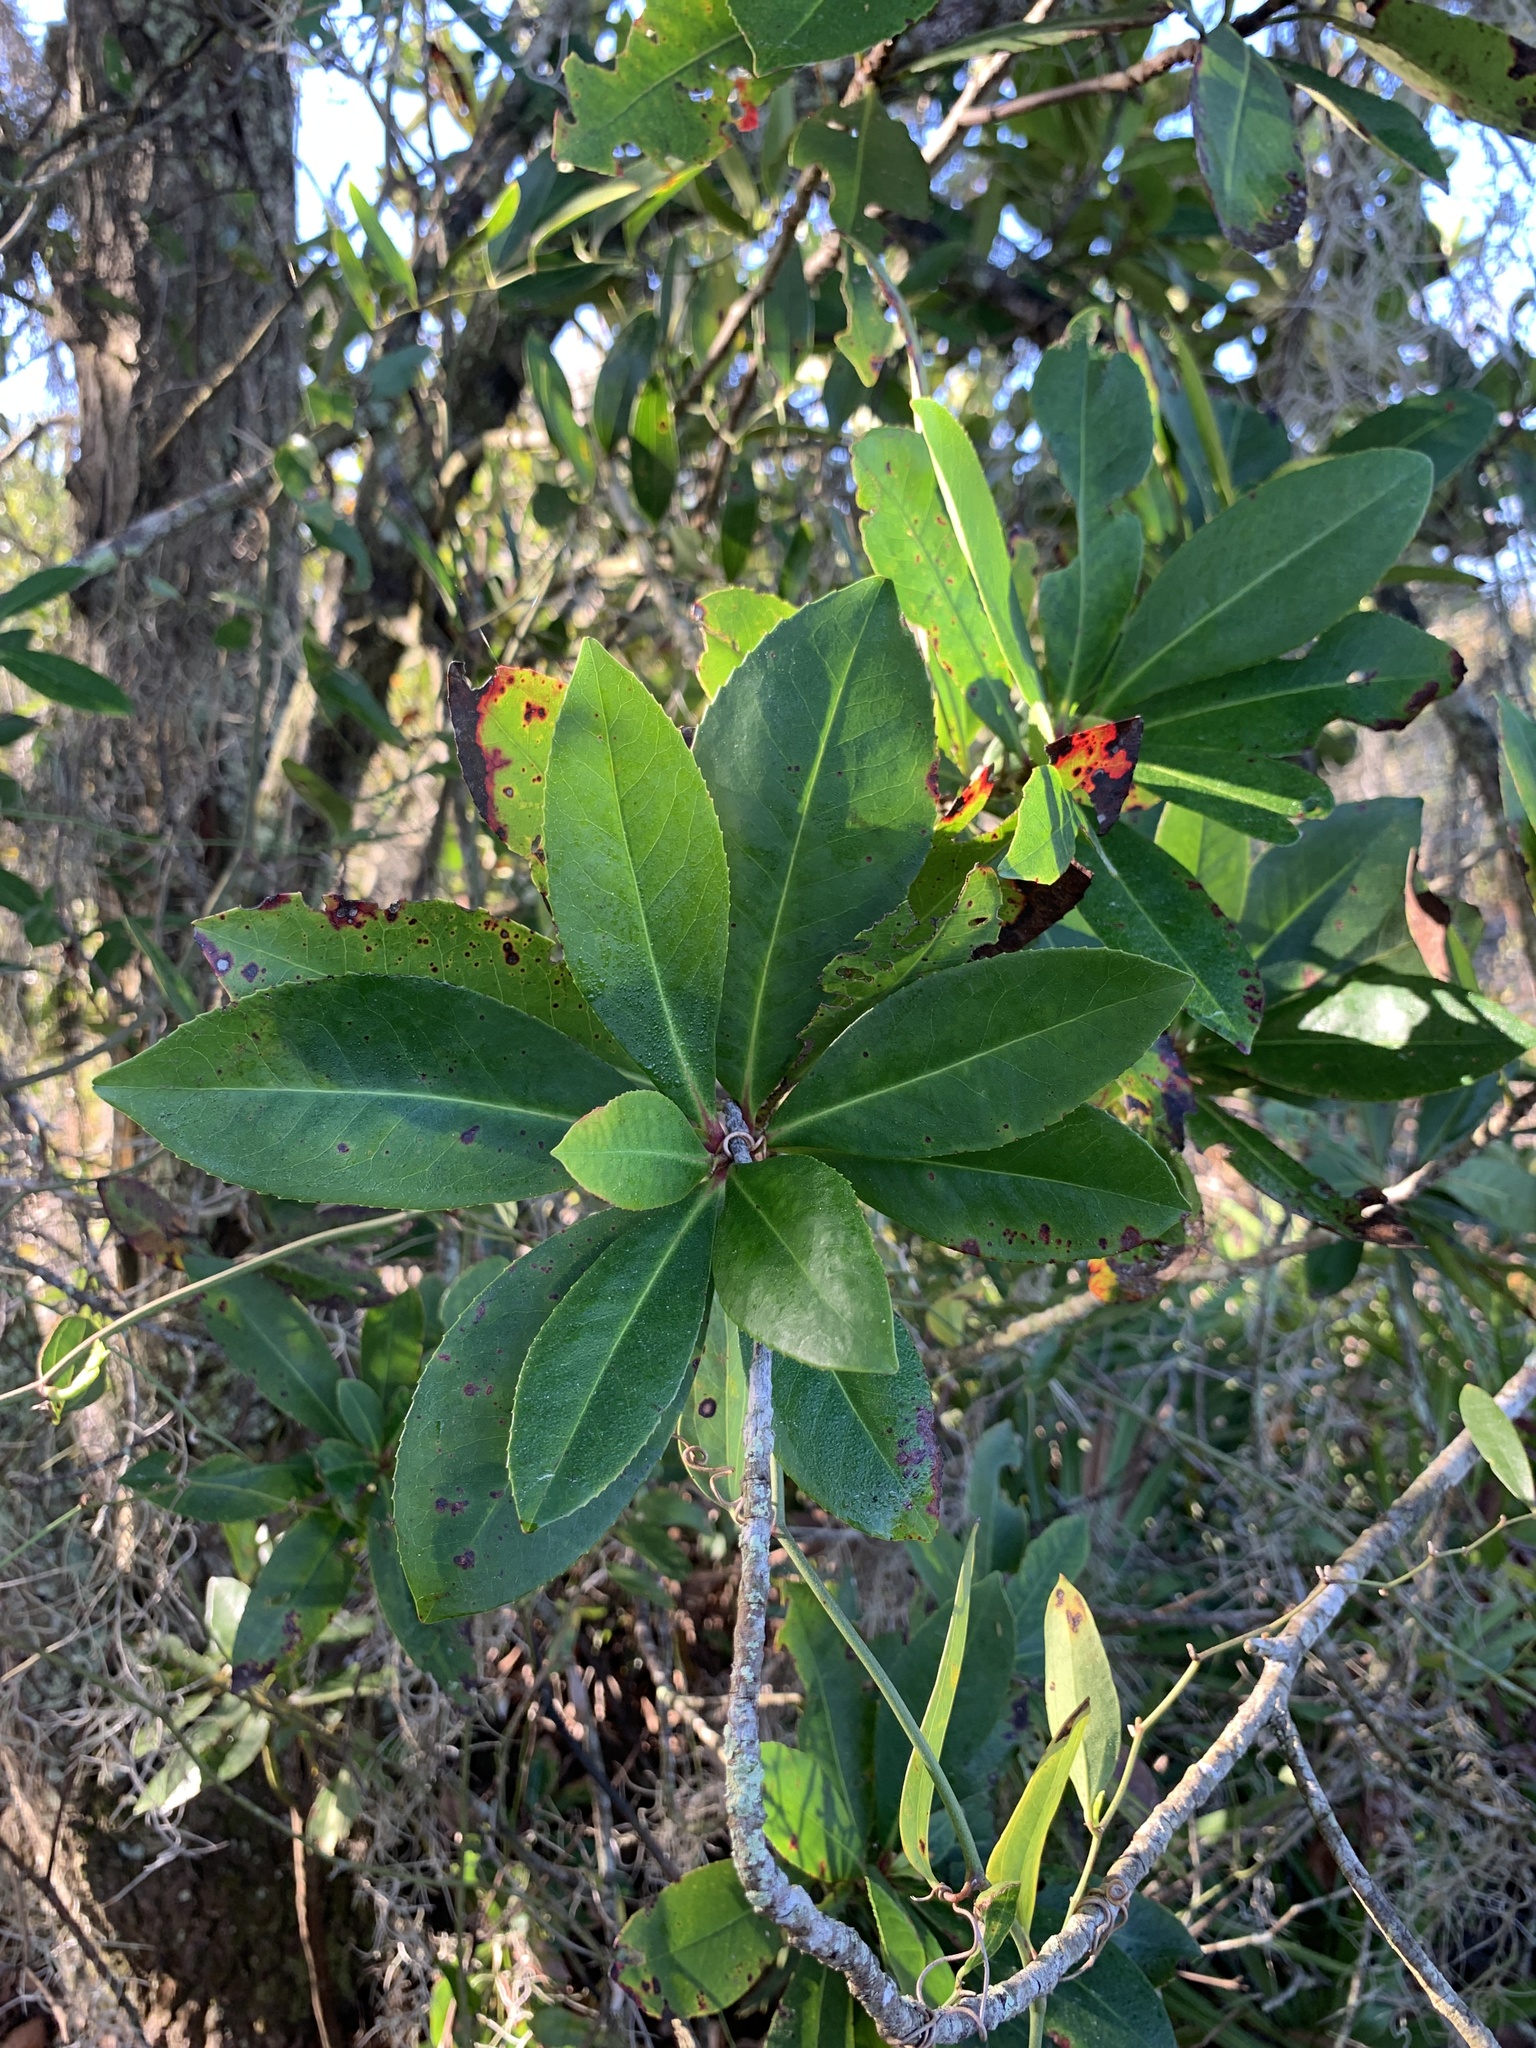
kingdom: Plantae
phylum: Tracheophyta
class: Magnoliopsida
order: Ericales
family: Theaceae
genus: Gordonia
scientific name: Gordonia lasianthus
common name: Loblolly bay
